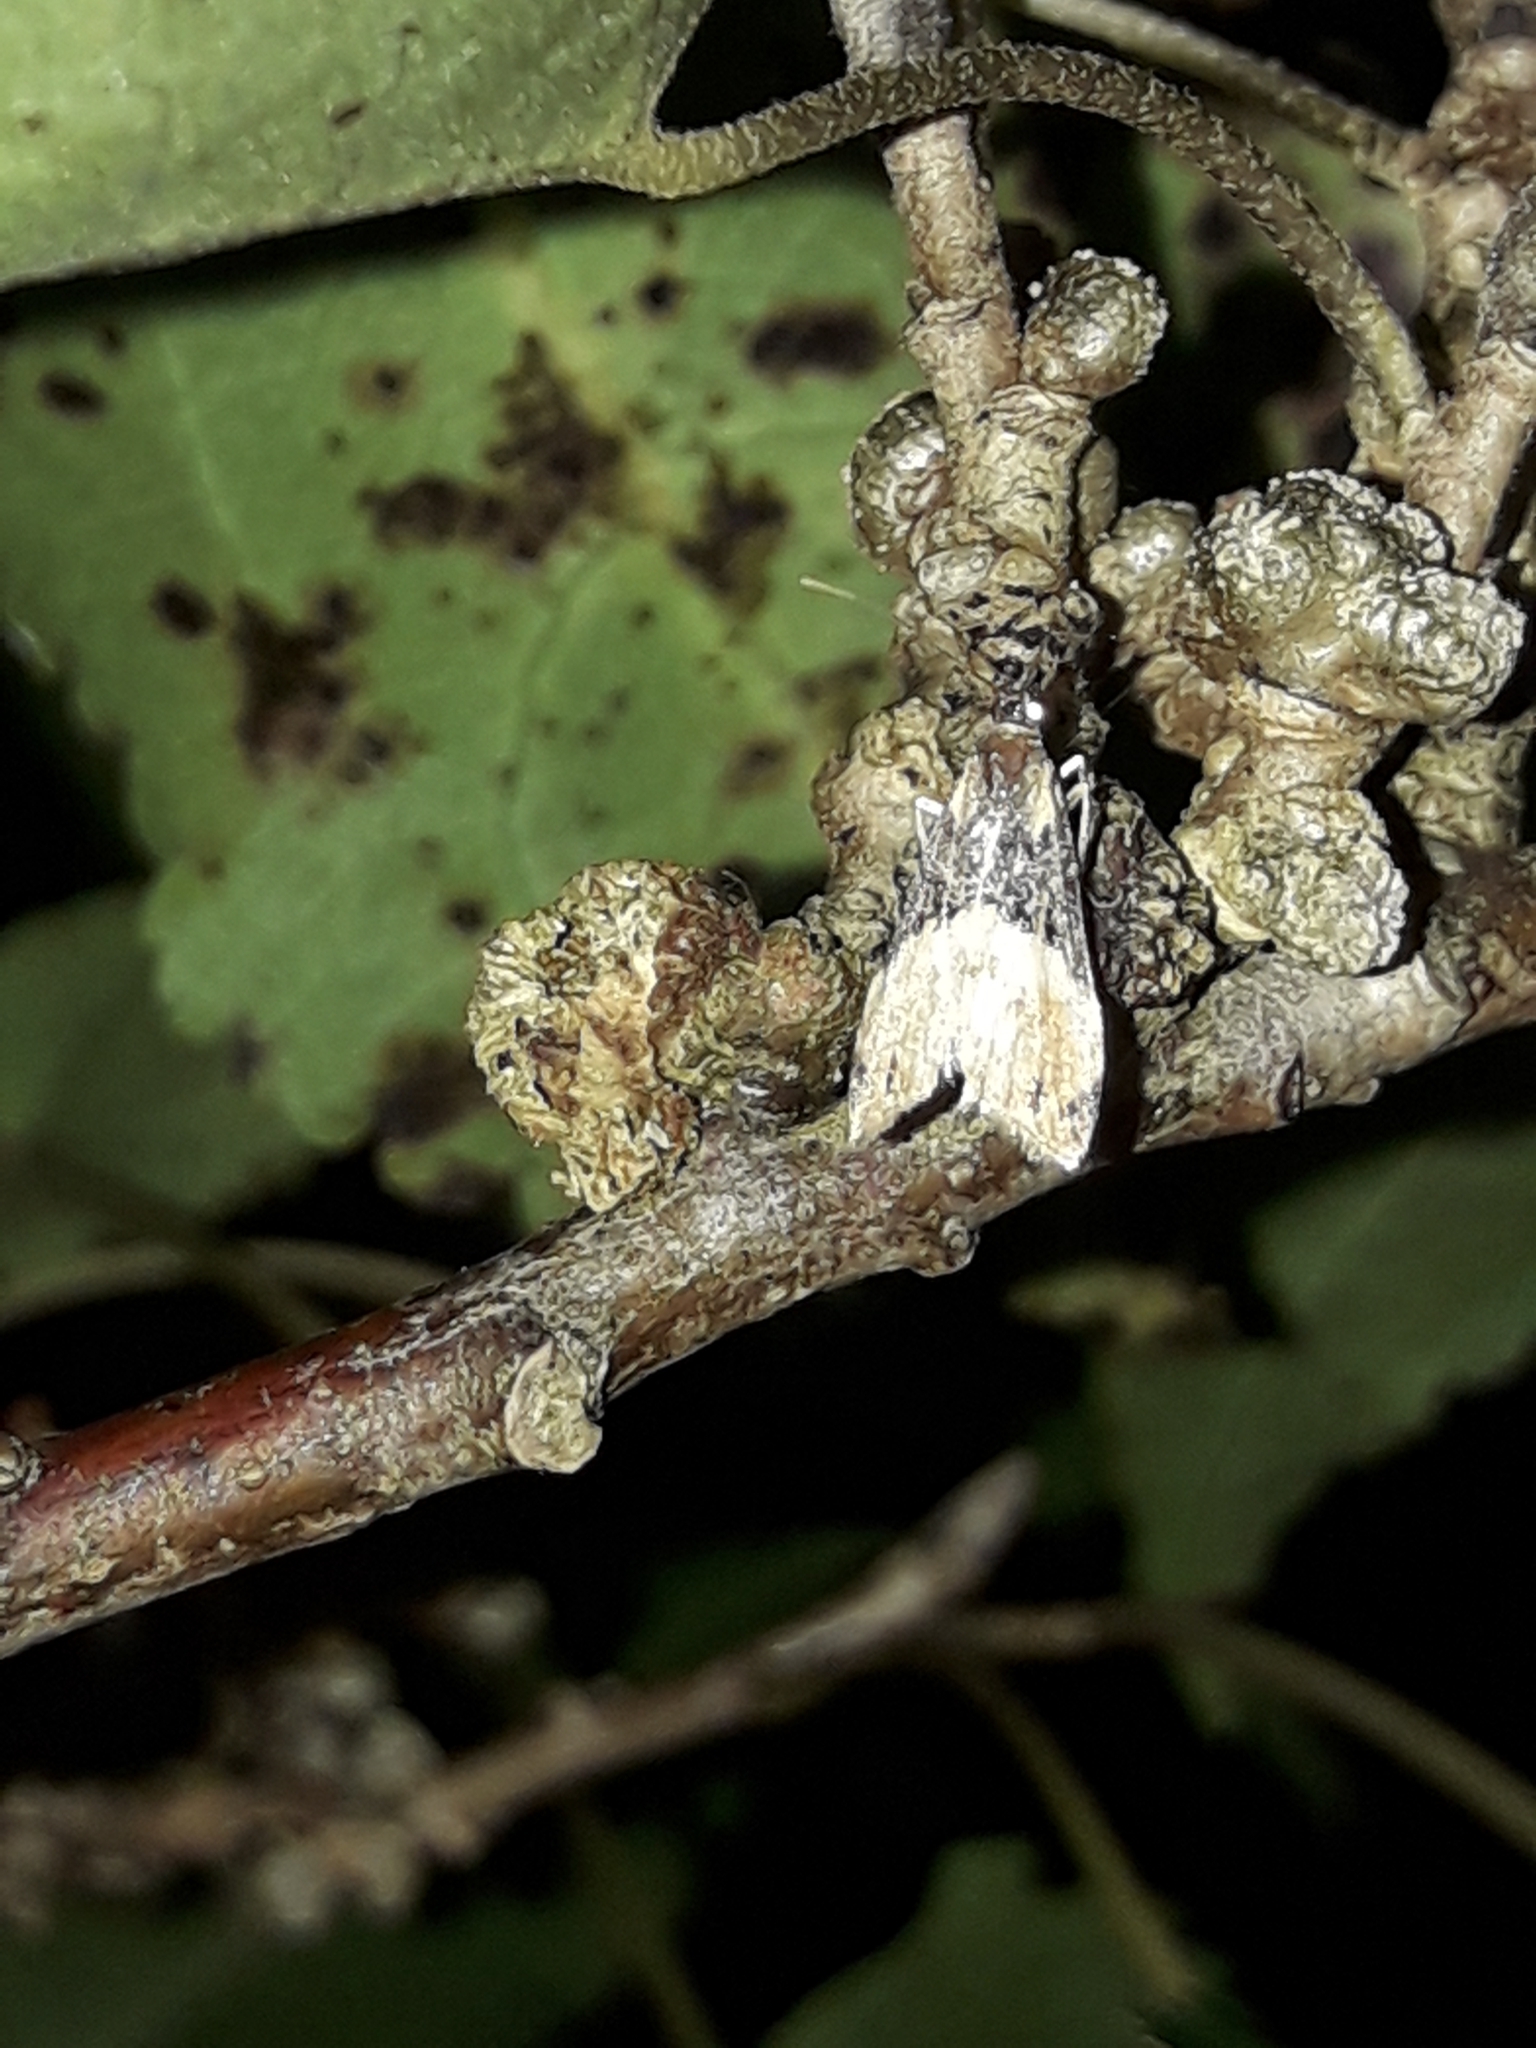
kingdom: Animalia
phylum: Arthropoda
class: Insecta
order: Lepidoptera
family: Crambidae
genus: Eudonia
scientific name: Eudonia chlamydota
